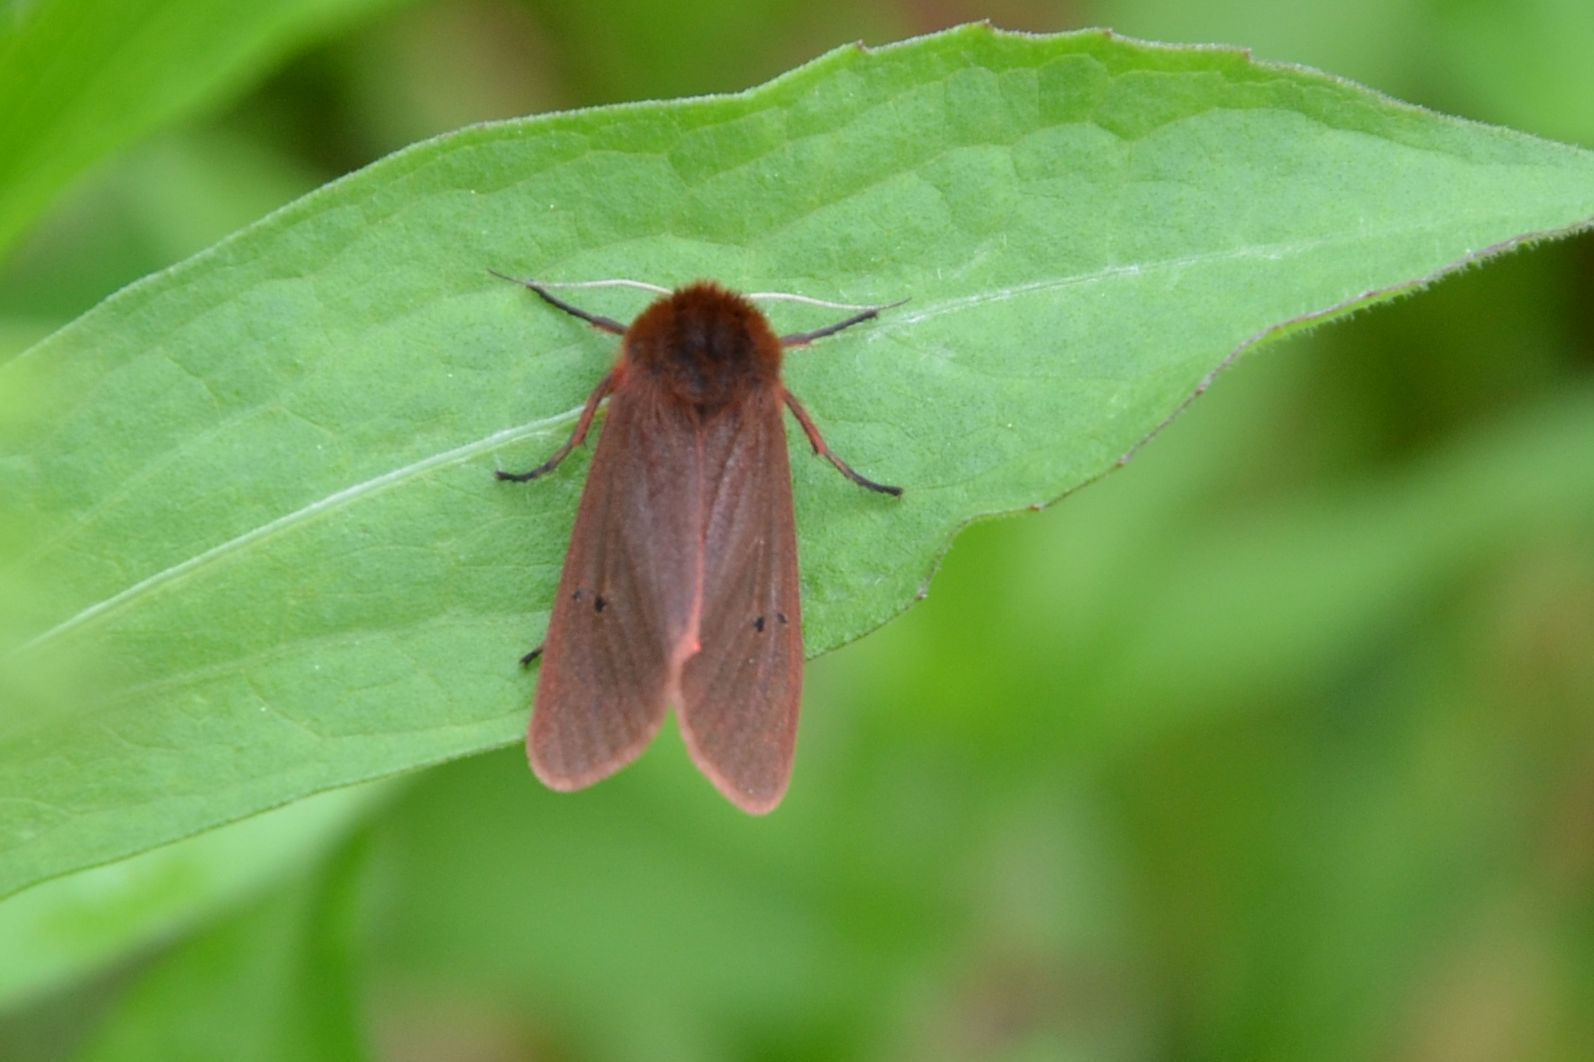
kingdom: Animalia
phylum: Arthropoda
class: Insecta
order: Lepidoptera
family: Erebidae
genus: Phragmatobia
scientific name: Phragmatobia fuliginosa
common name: Ruby tiger
